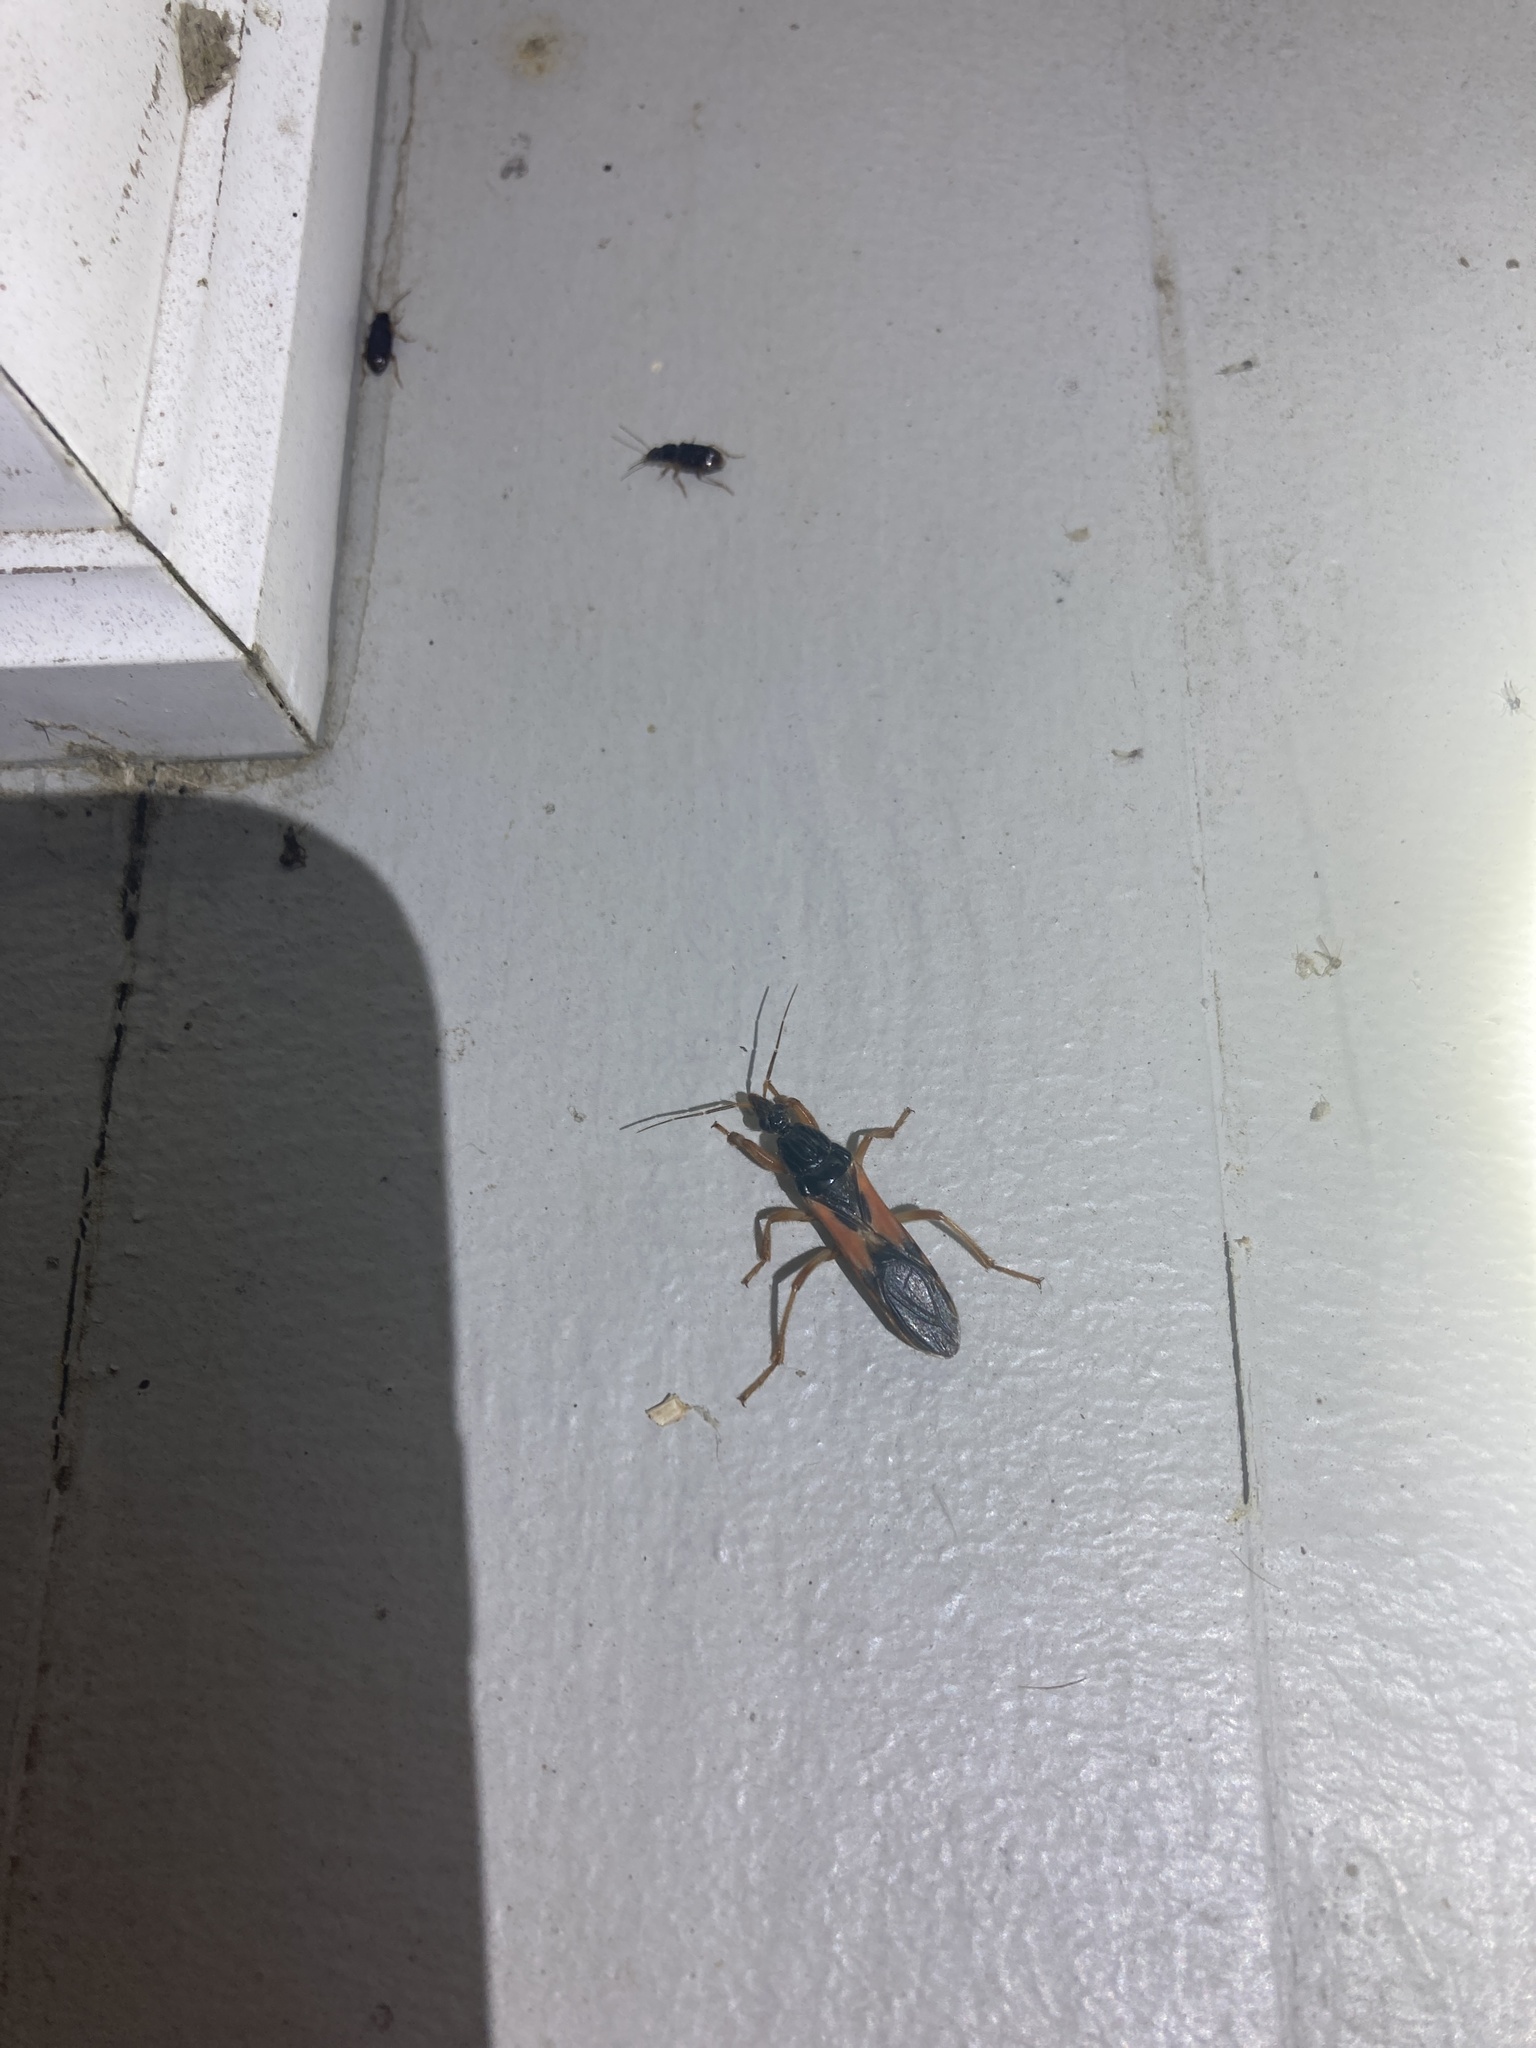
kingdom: Animalia
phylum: Arthropoda
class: Insecta
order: Hemiptera
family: Reduviidae
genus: Sirthenea
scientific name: Sirthenea stria
